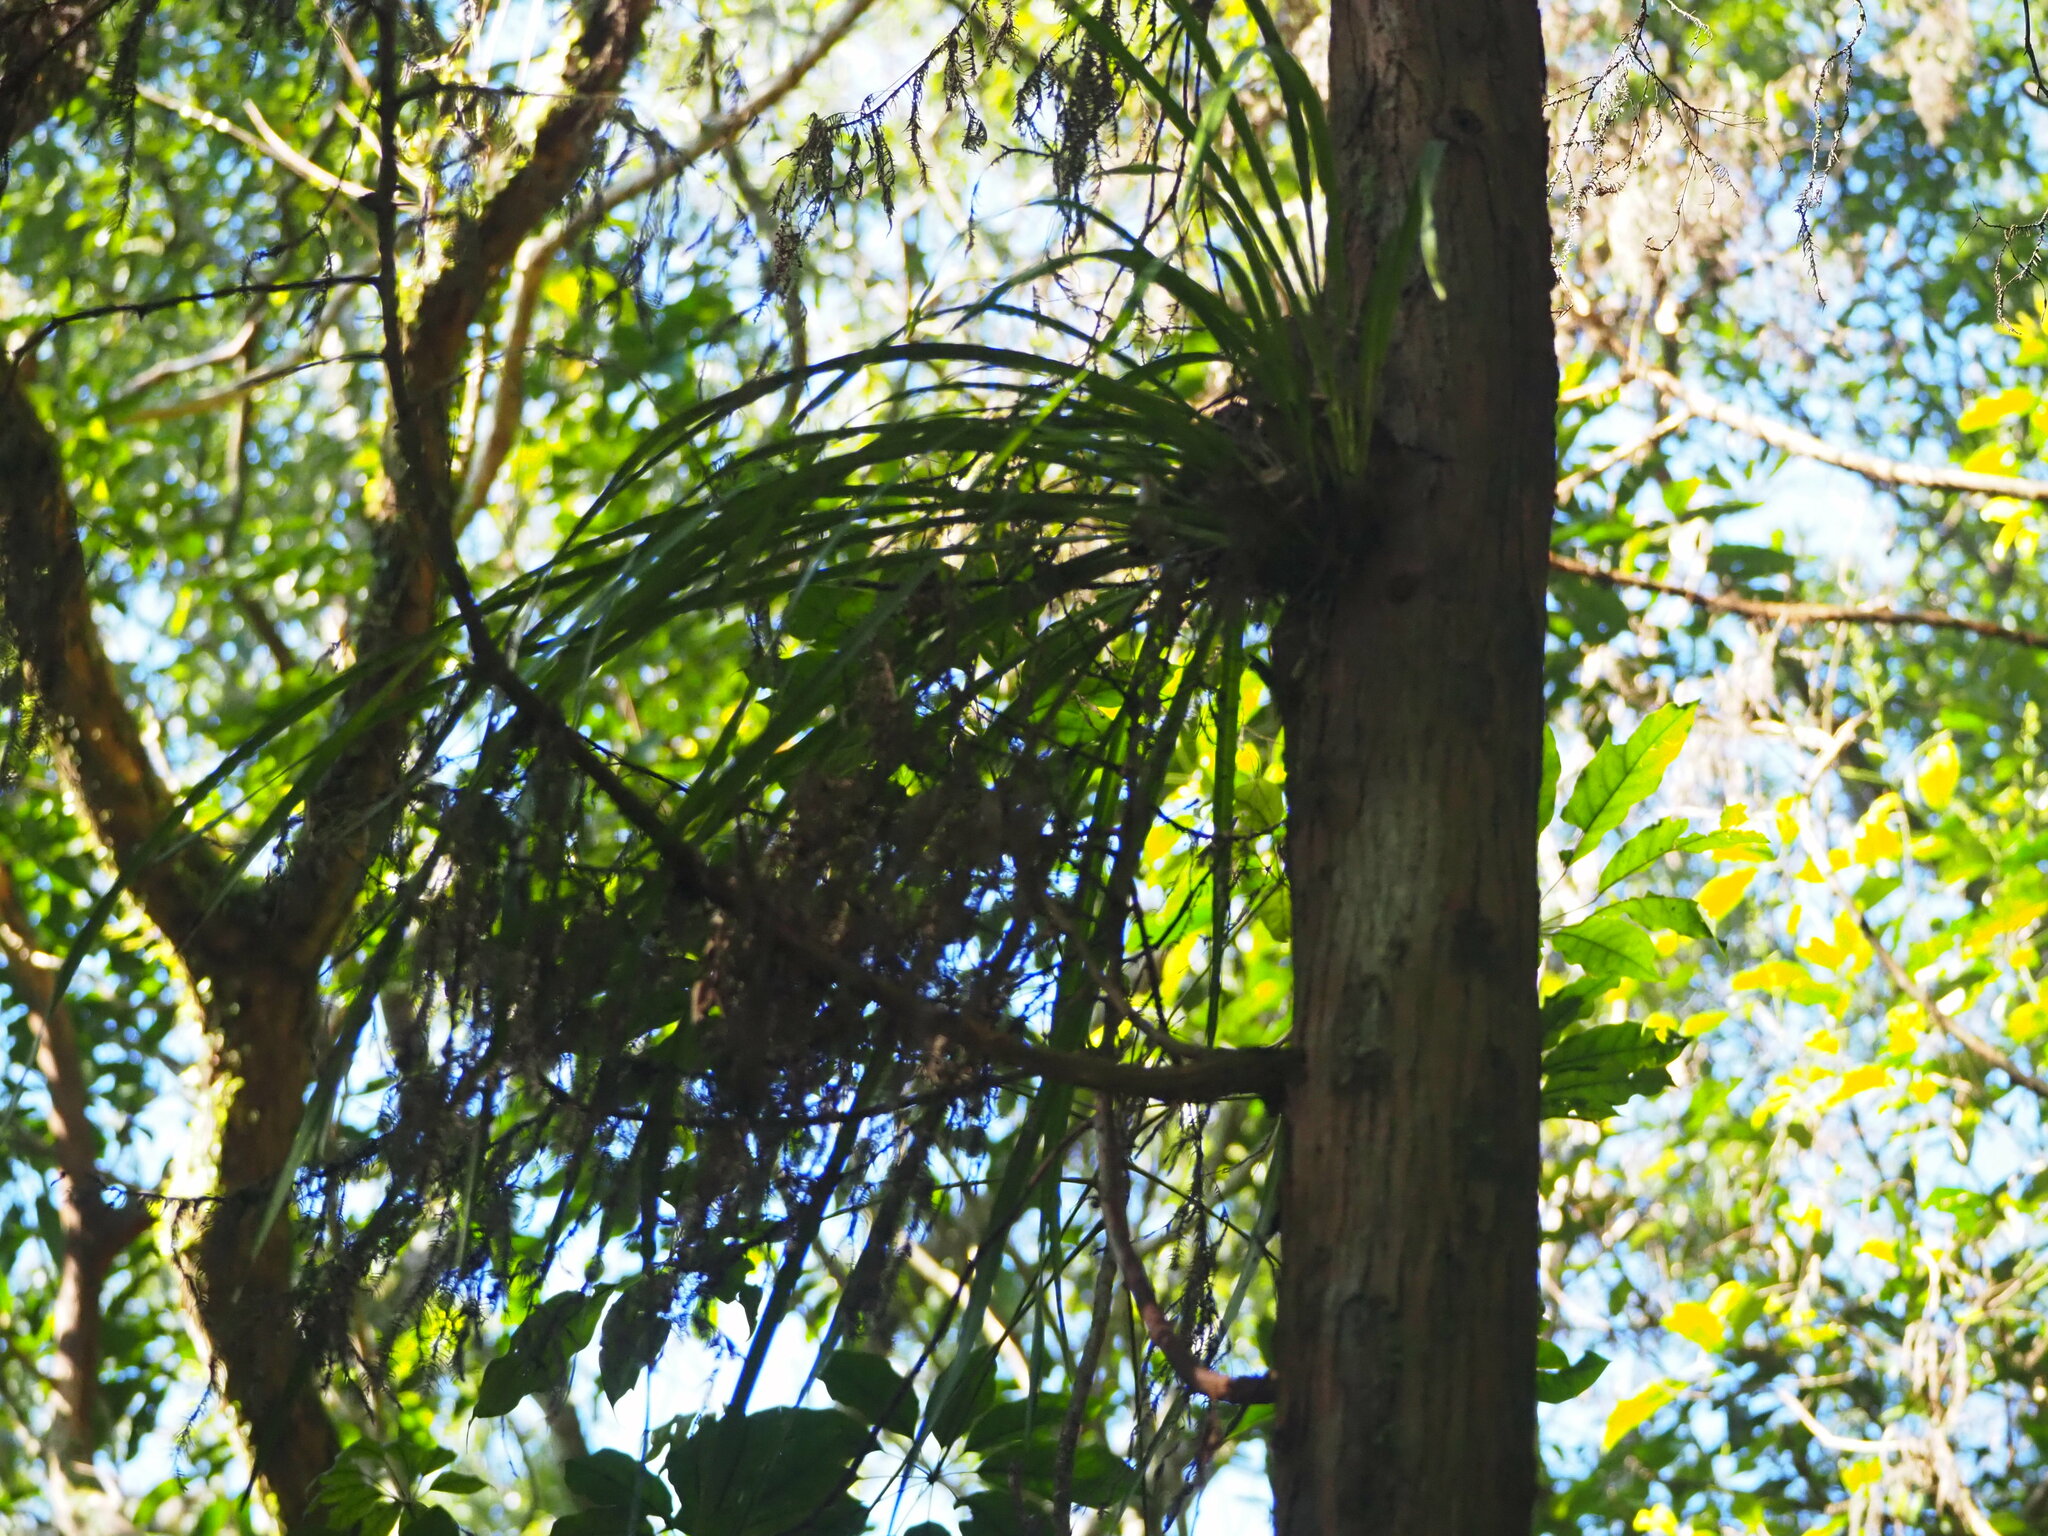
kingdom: Plantae
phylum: Tracheophyta
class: Liliopsida
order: Asparagales
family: Orchidaceae
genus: Cymbidium
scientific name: Cymbidium dayanum
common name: Orchid
